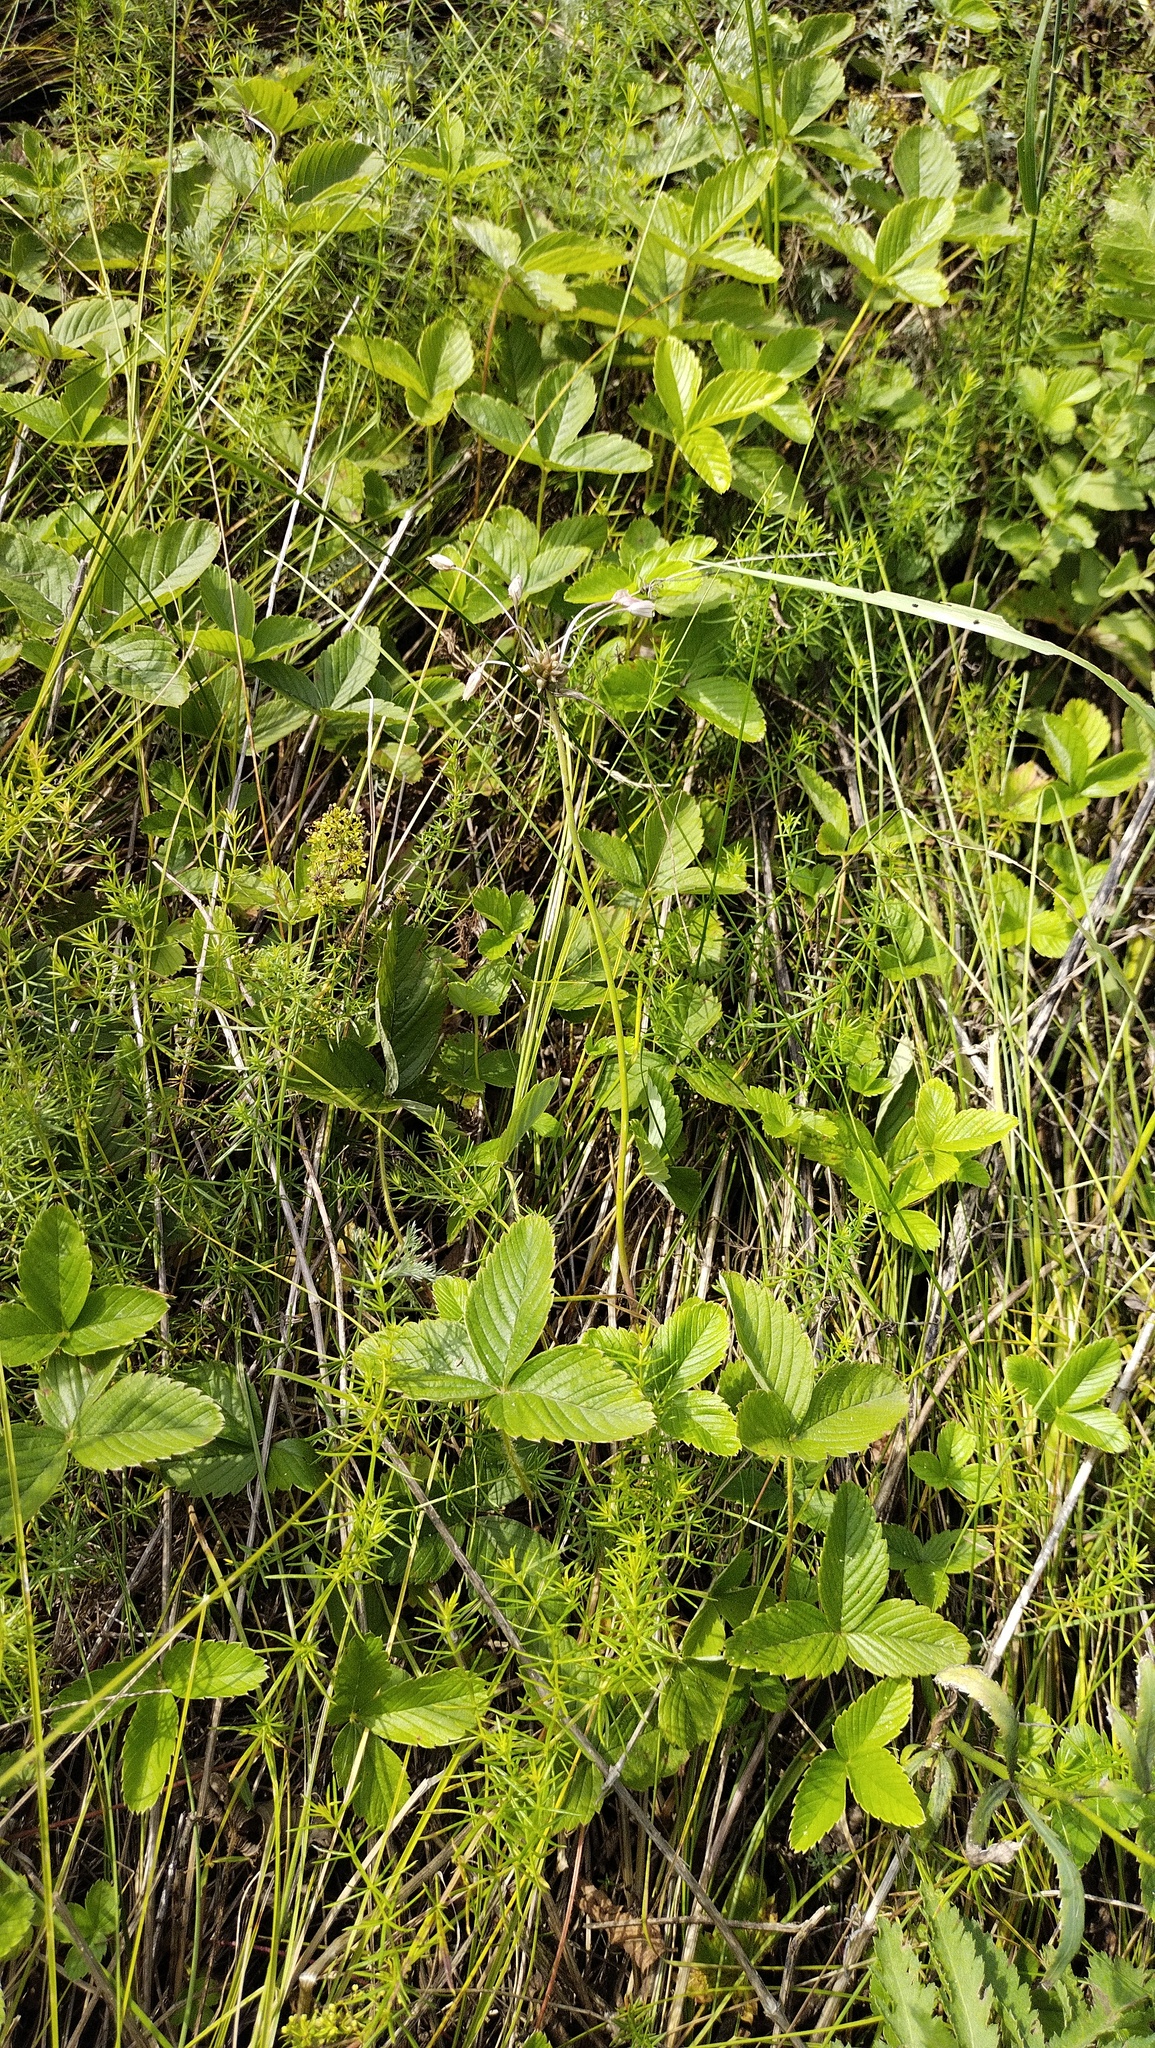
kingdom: Plantae
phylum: Tracheophyta
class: Liliopsida
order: Asparagales
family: Amaryllidaceae
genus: Allium
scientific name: Allium oleraceum
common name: Field garlic
